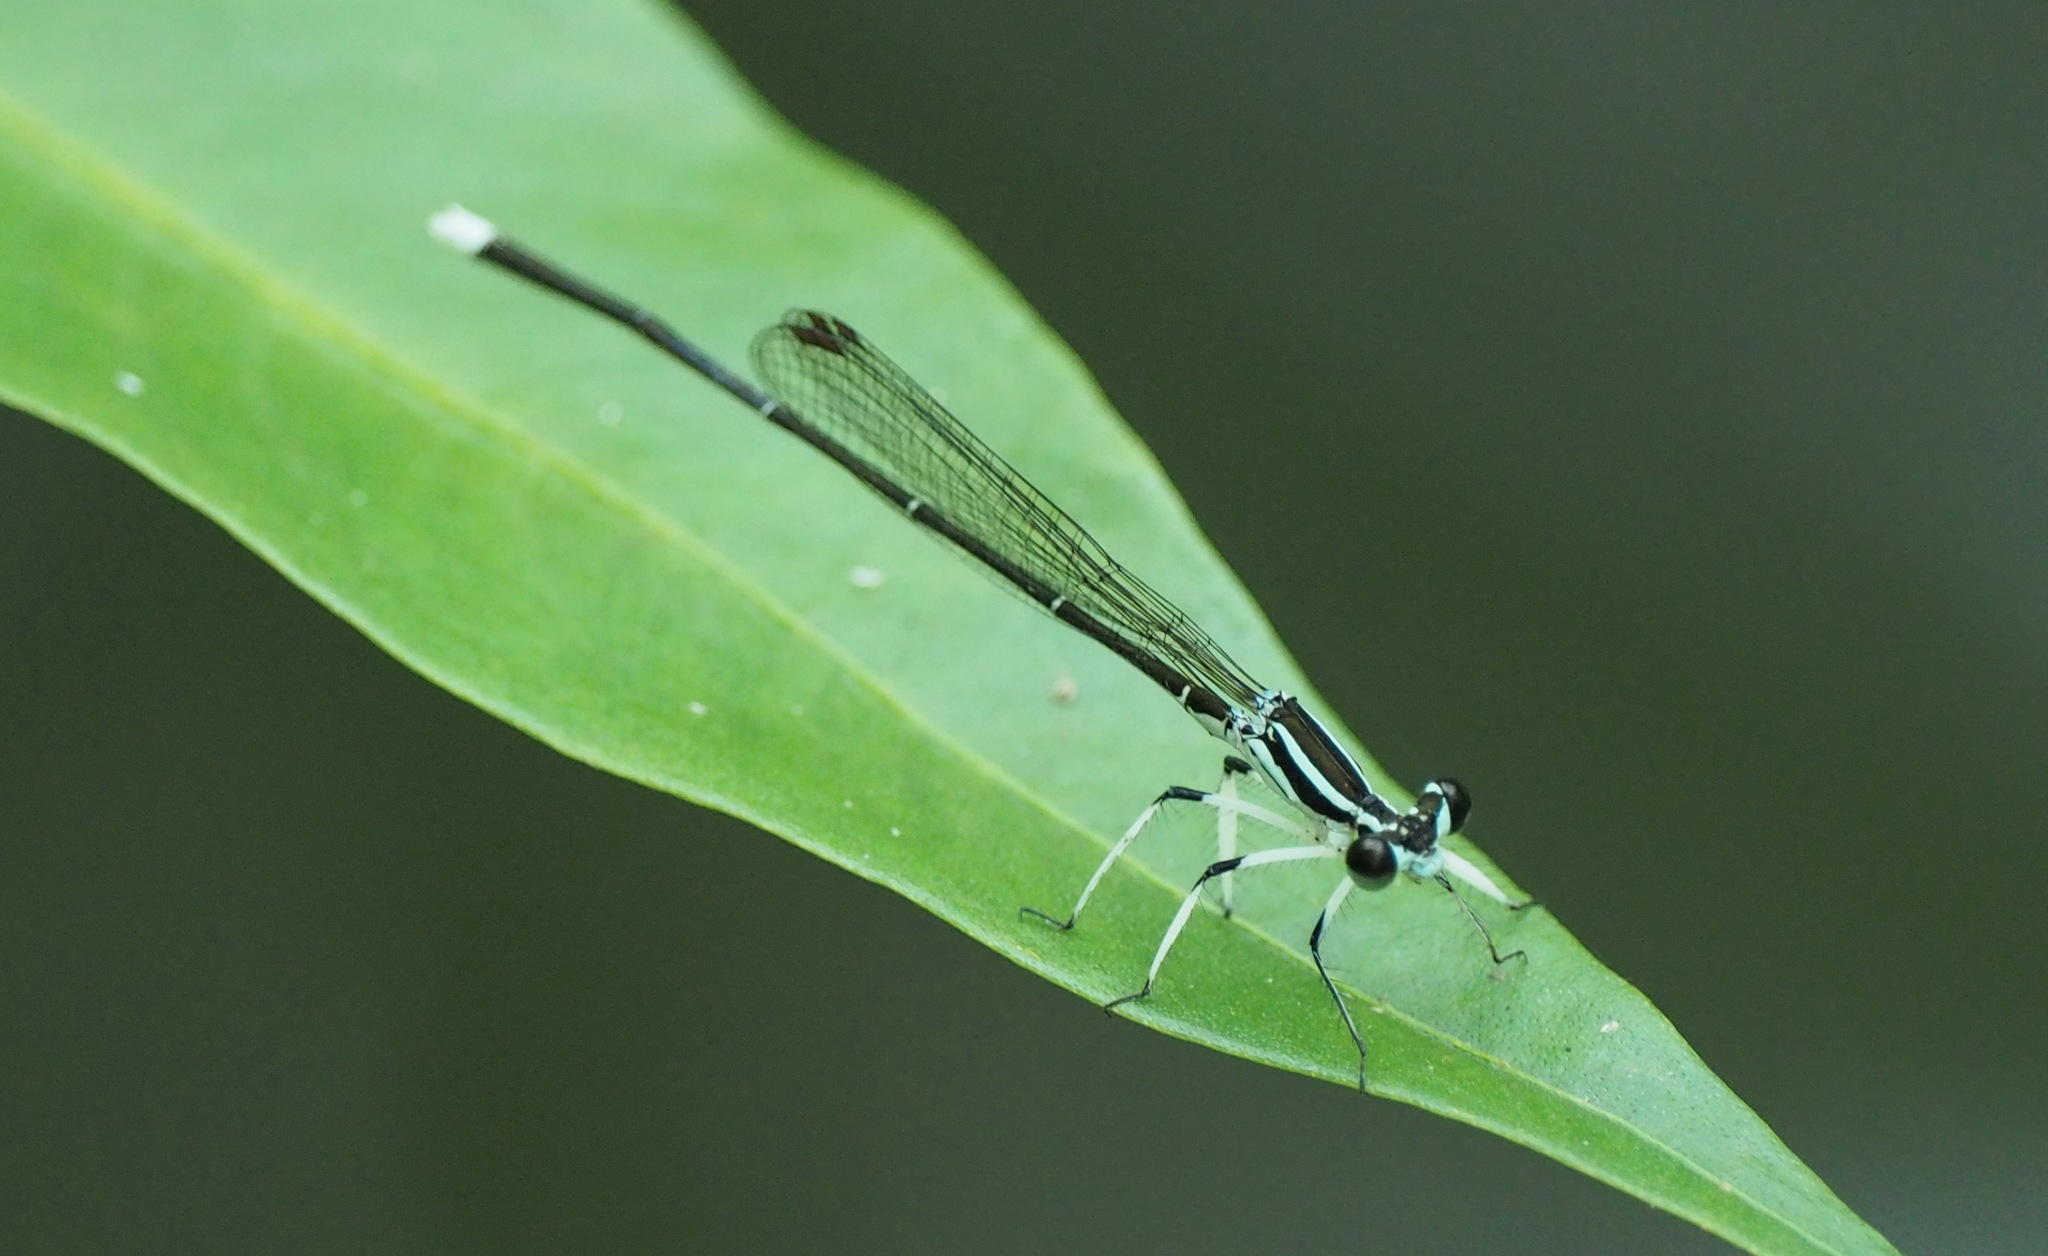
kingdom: Animalia
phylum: Arthropoda
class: Insecta
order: Odonata
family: Platycnemididae
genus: Pseudocopera
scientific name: Pseudocopera ciliata
